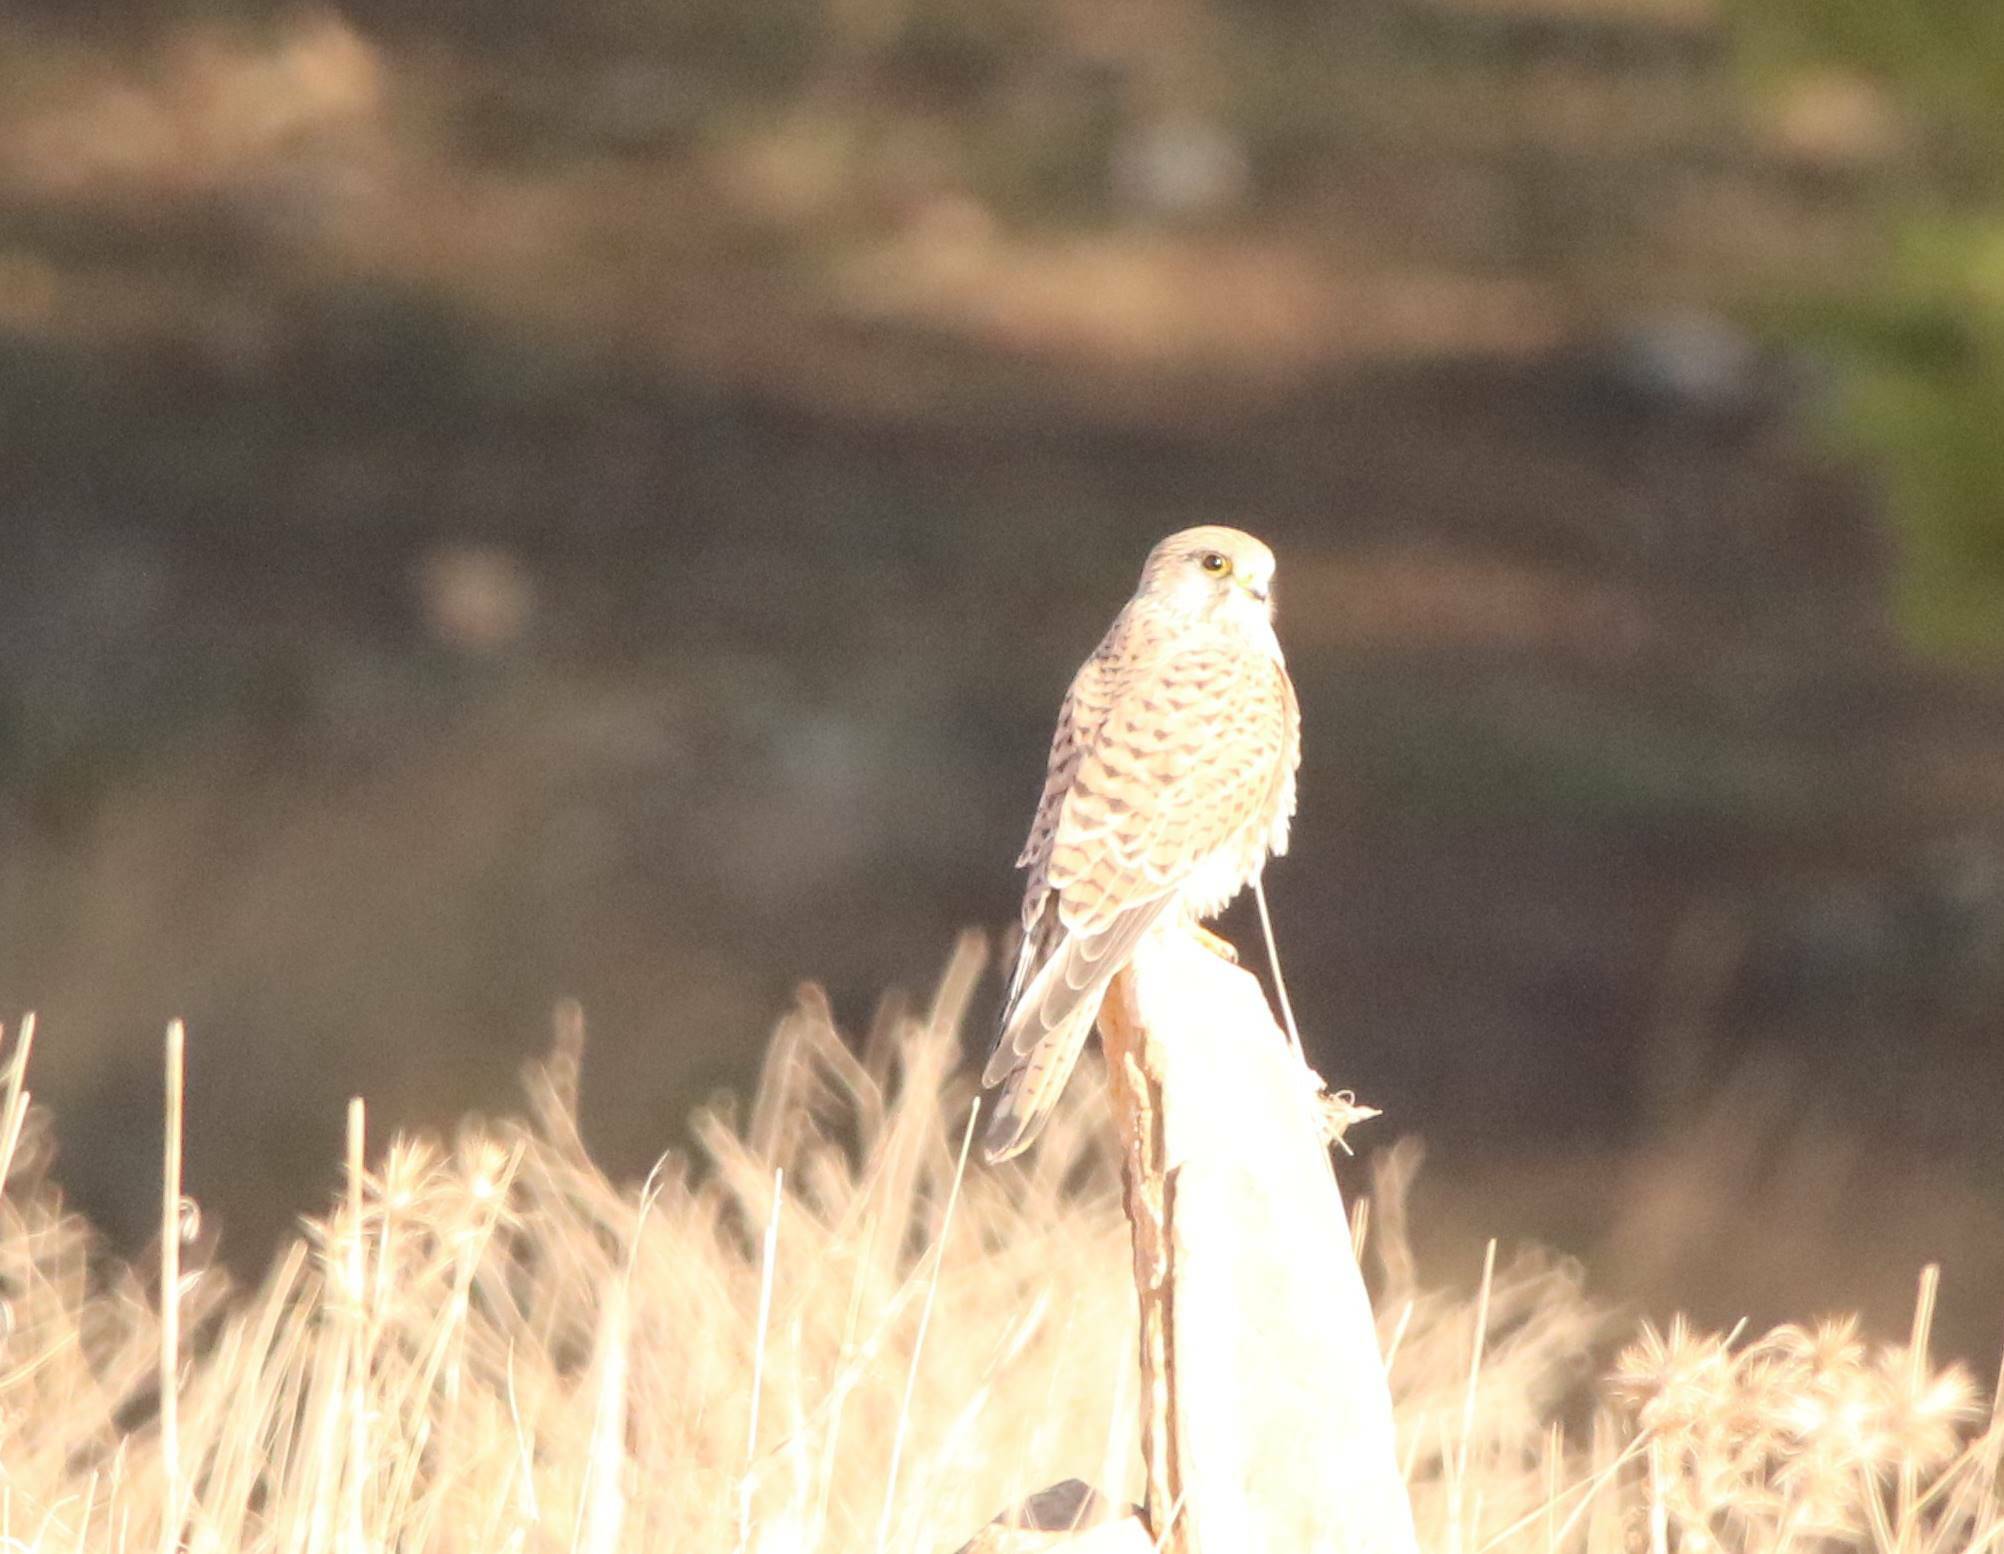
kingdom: Animalia
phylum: Chordata
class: Aves
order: Falconiformes
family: Falconidae
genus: Falco
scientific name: Falco tinnunculus
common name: Common kestrel
